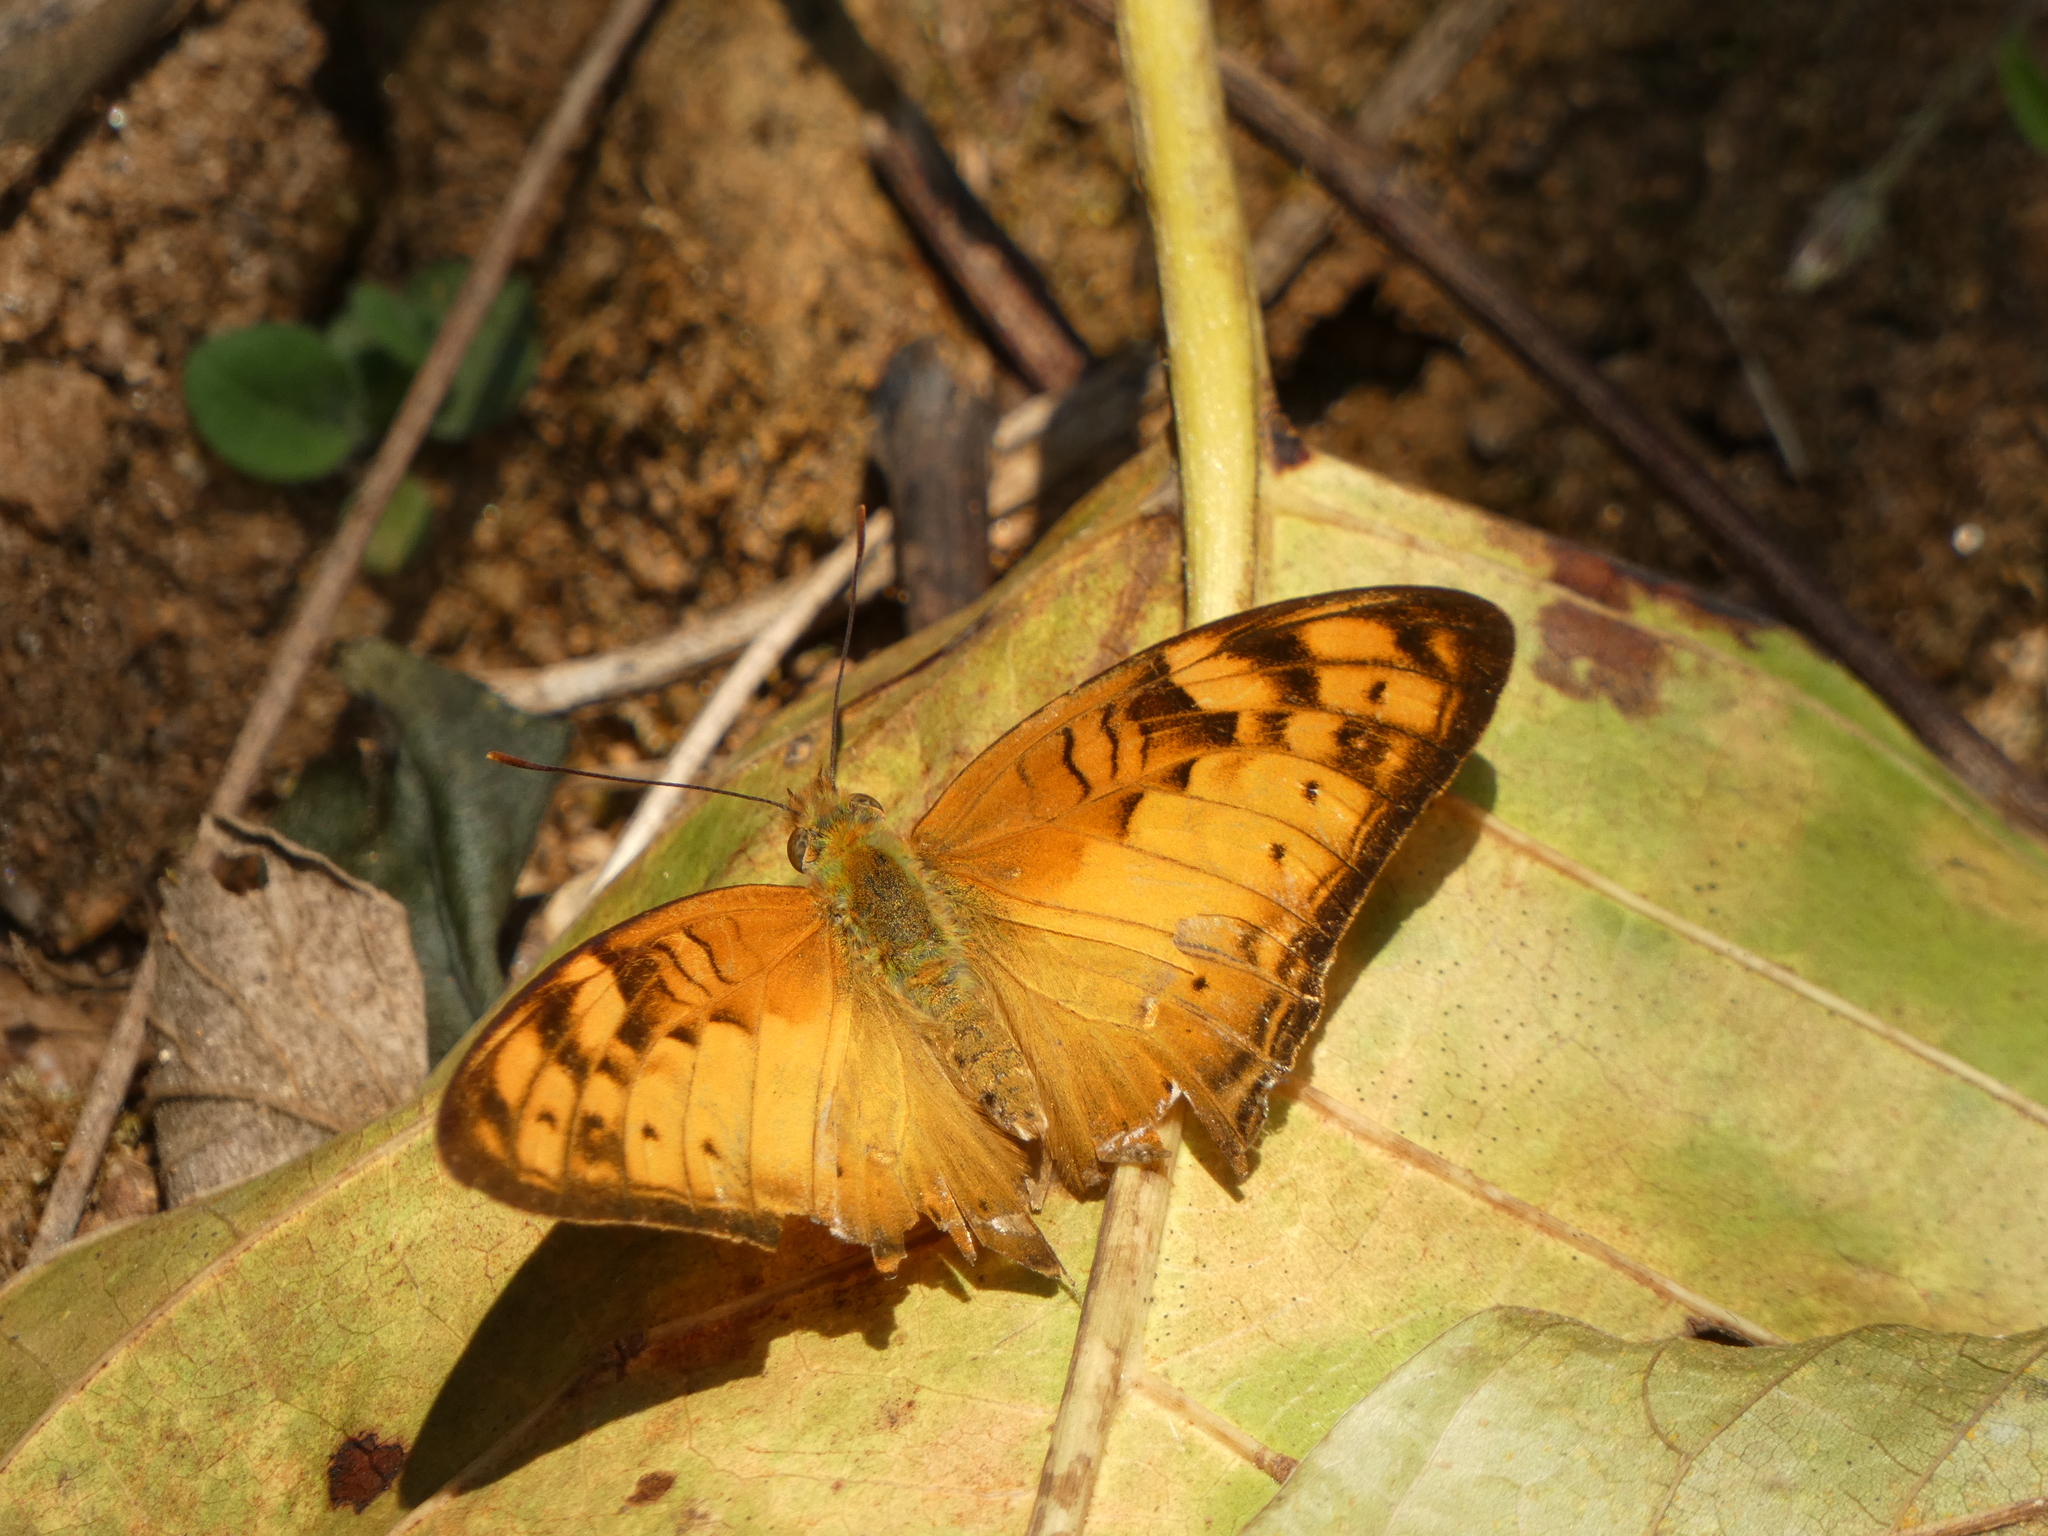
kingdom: Animalia
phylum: Arthropoda
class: Insecta
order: Lepidoptera
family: Nymphalidae
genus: Vagrans
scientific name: Vagrans sinha
